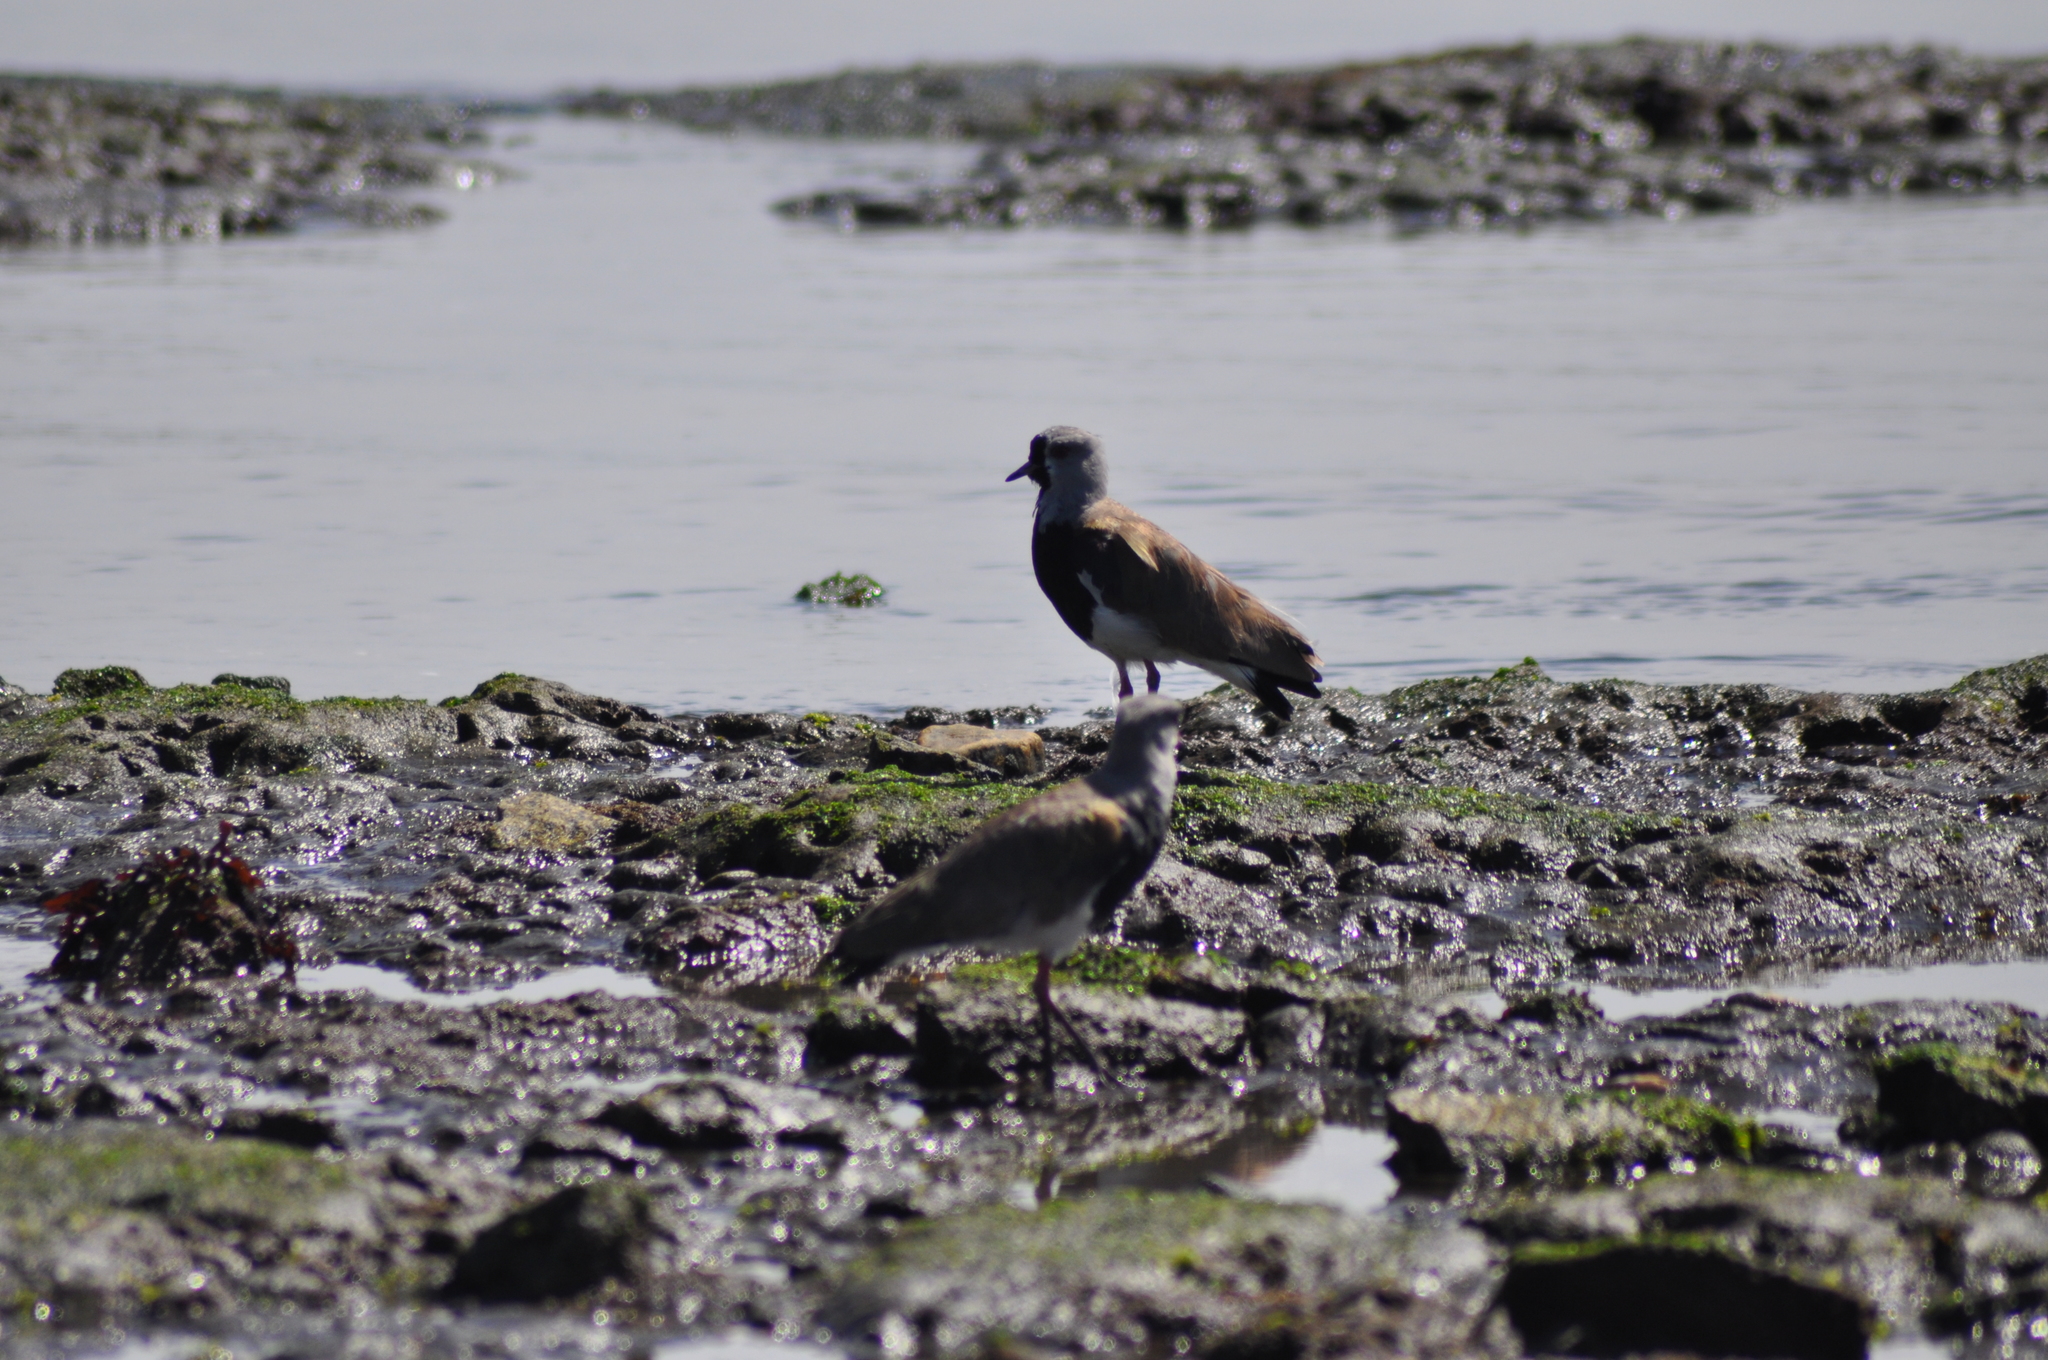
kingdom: Animalia
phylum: Chordata
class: Aves
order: Charadriiformes
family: Charadriidae
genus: Vanellus
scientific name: Vanellus chilensis
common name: Southern lapwing
